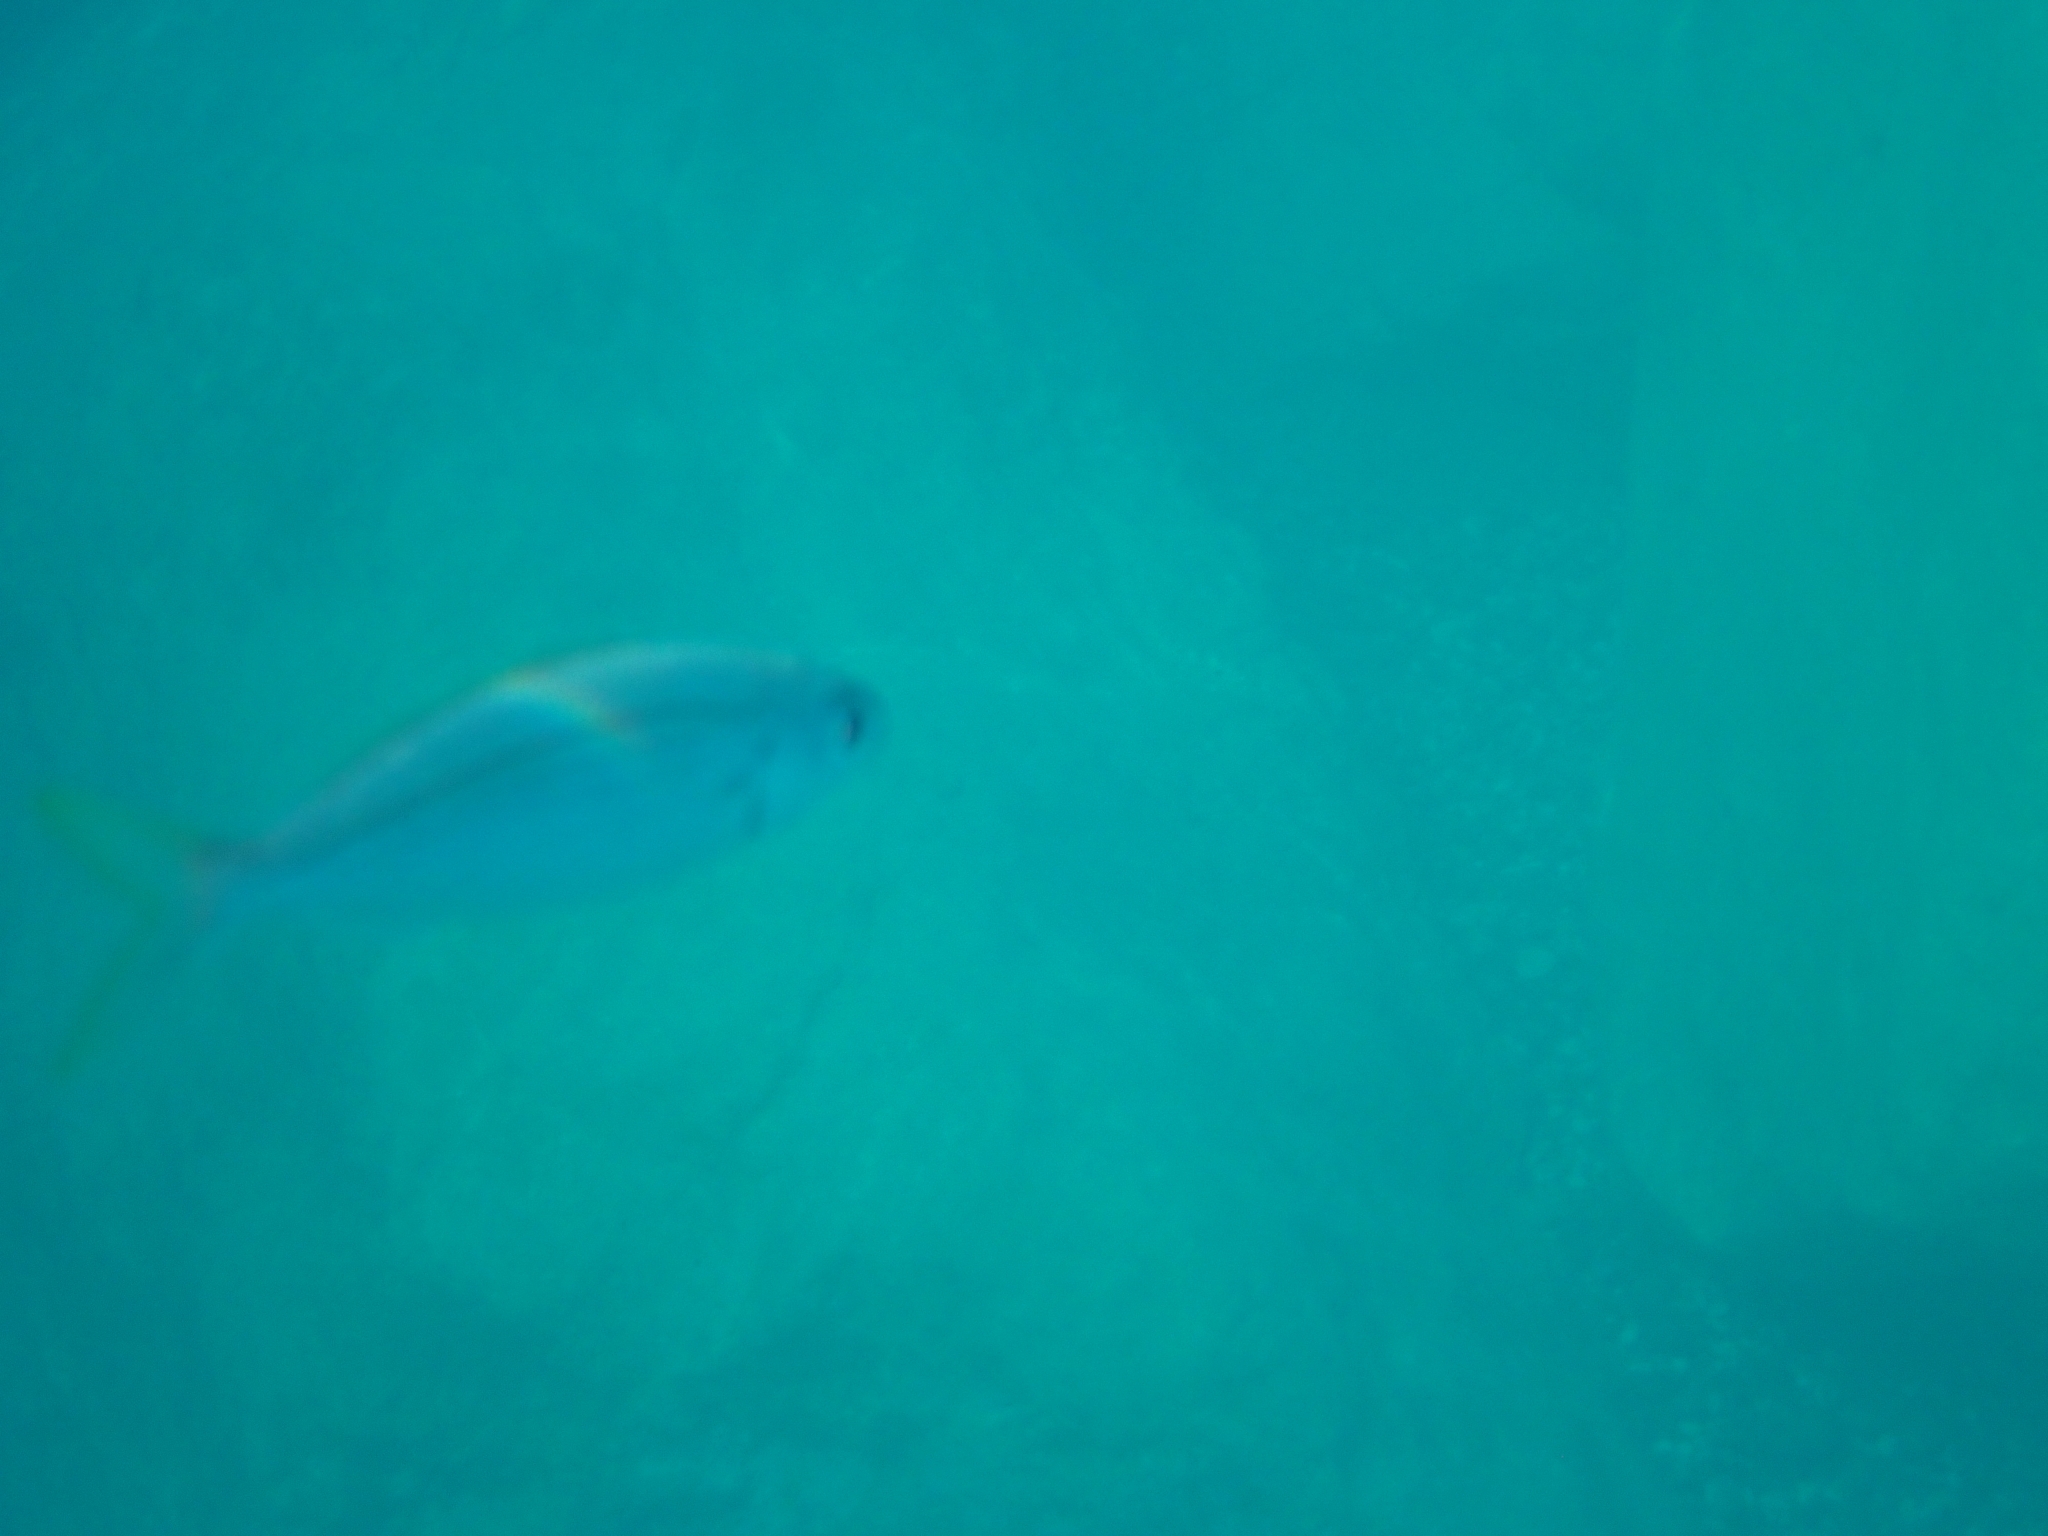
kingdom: Animalia
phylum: Chordata
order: Perciformes
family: Sparidae
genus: Boops
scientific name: Boops boops
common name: Bogue
